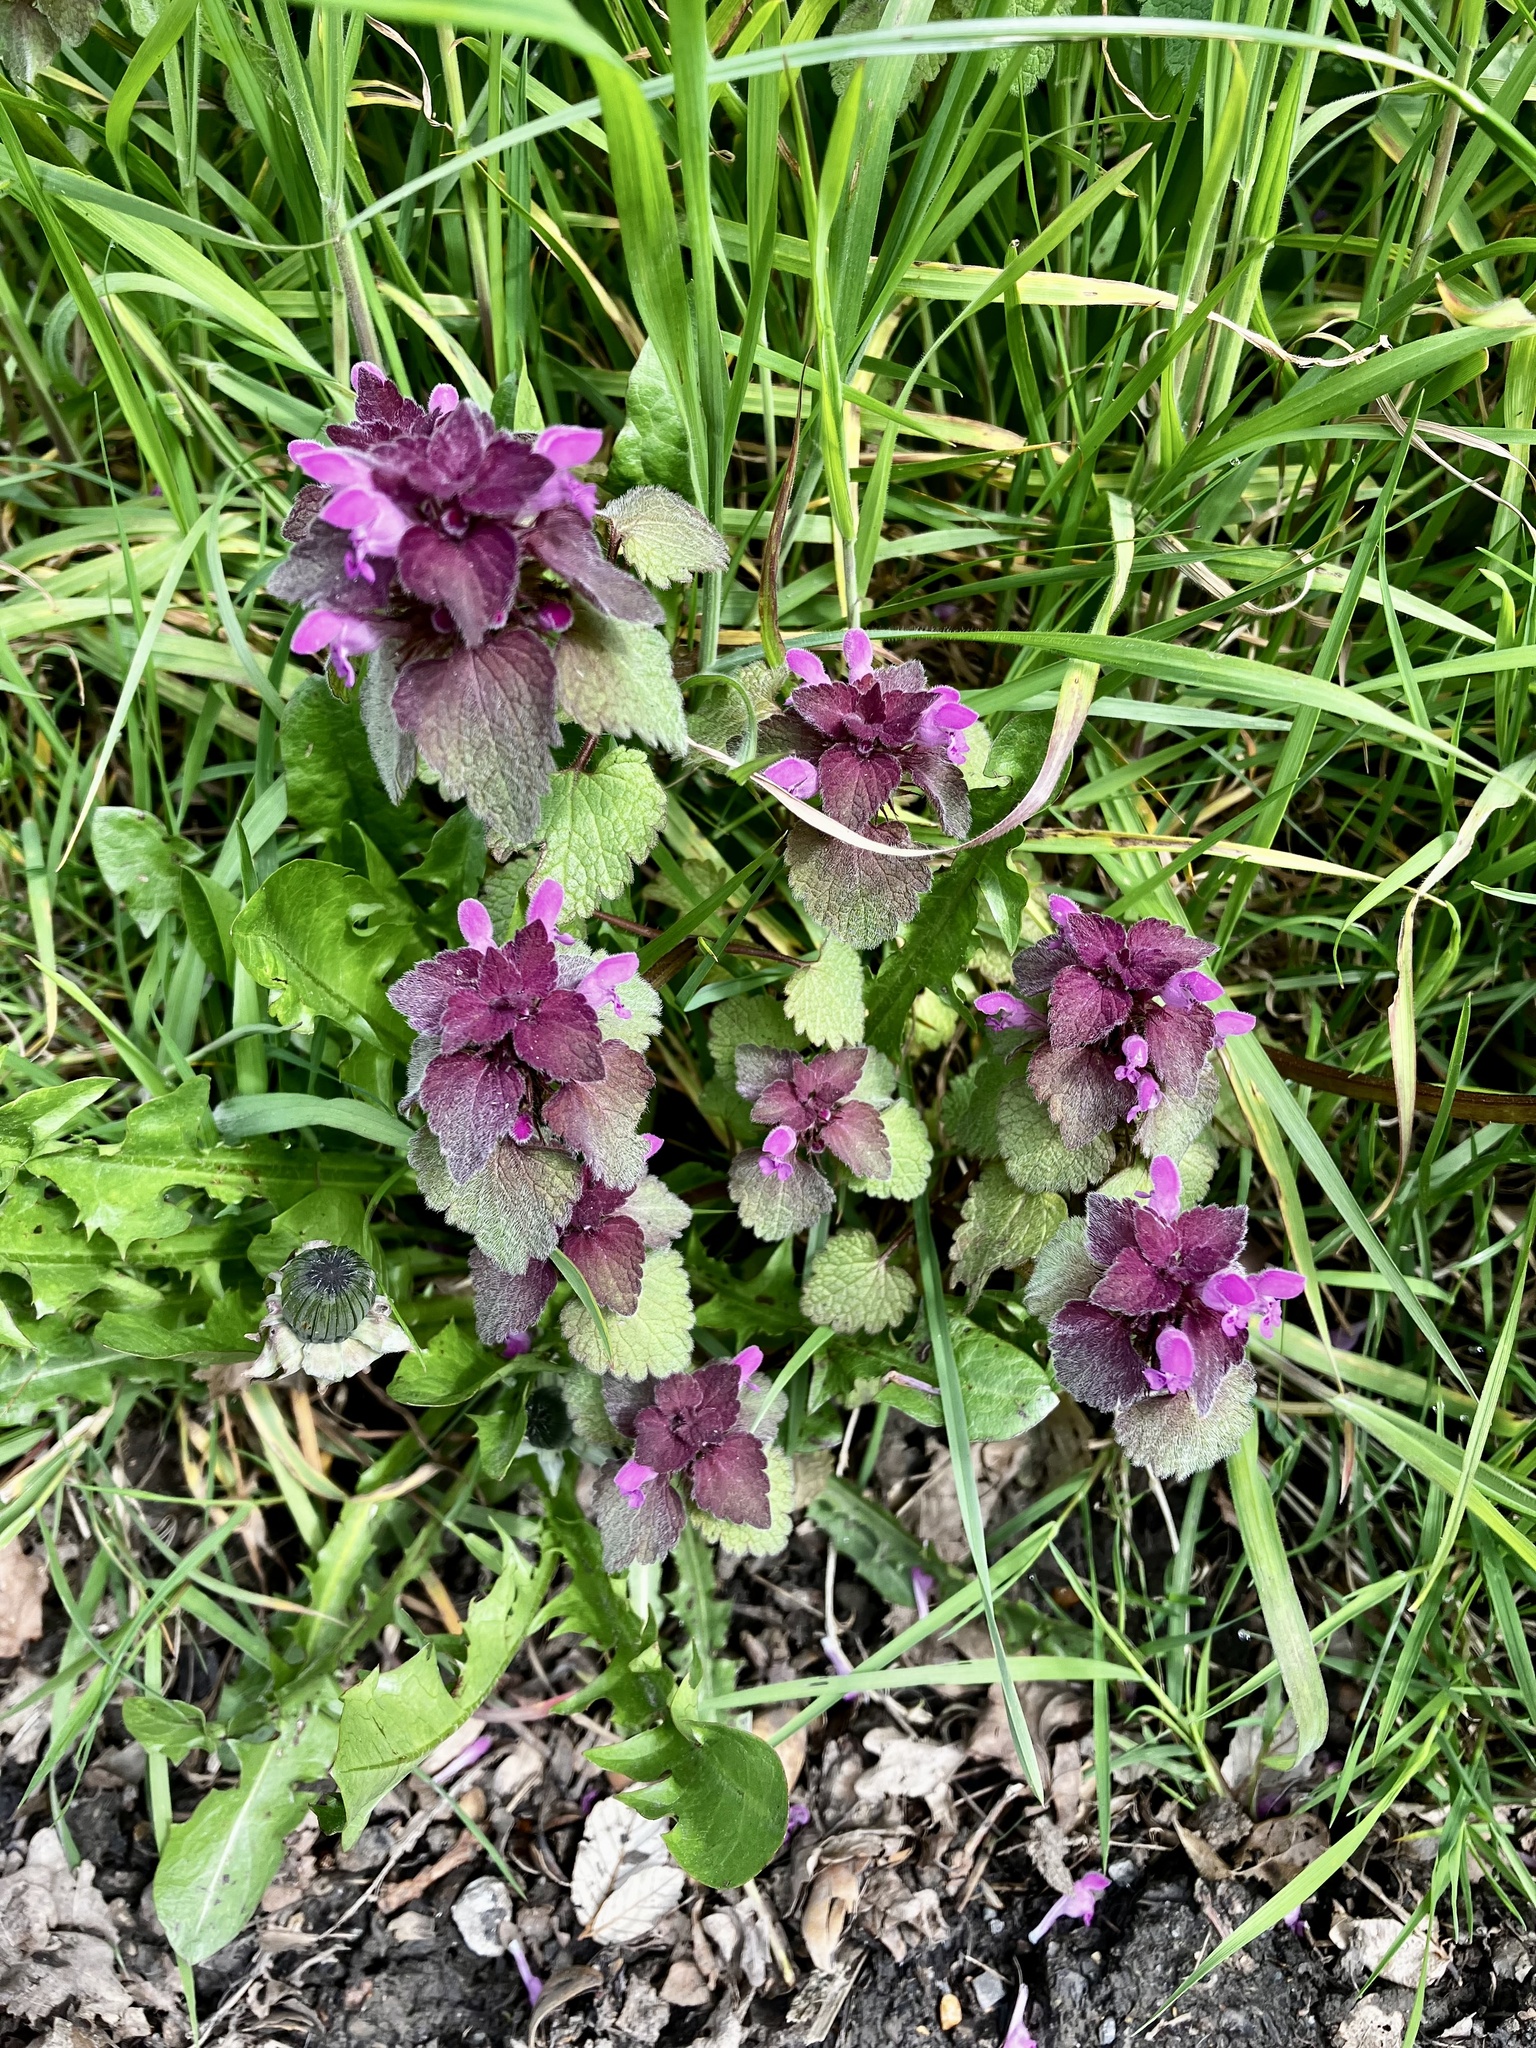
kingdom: Plantae
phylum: Tracheophyta
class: Magnoliopsida
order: Lamiales
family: Lamiaceae
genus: Lamium
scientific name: Lamium purpureum
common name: Red dead-nettle
